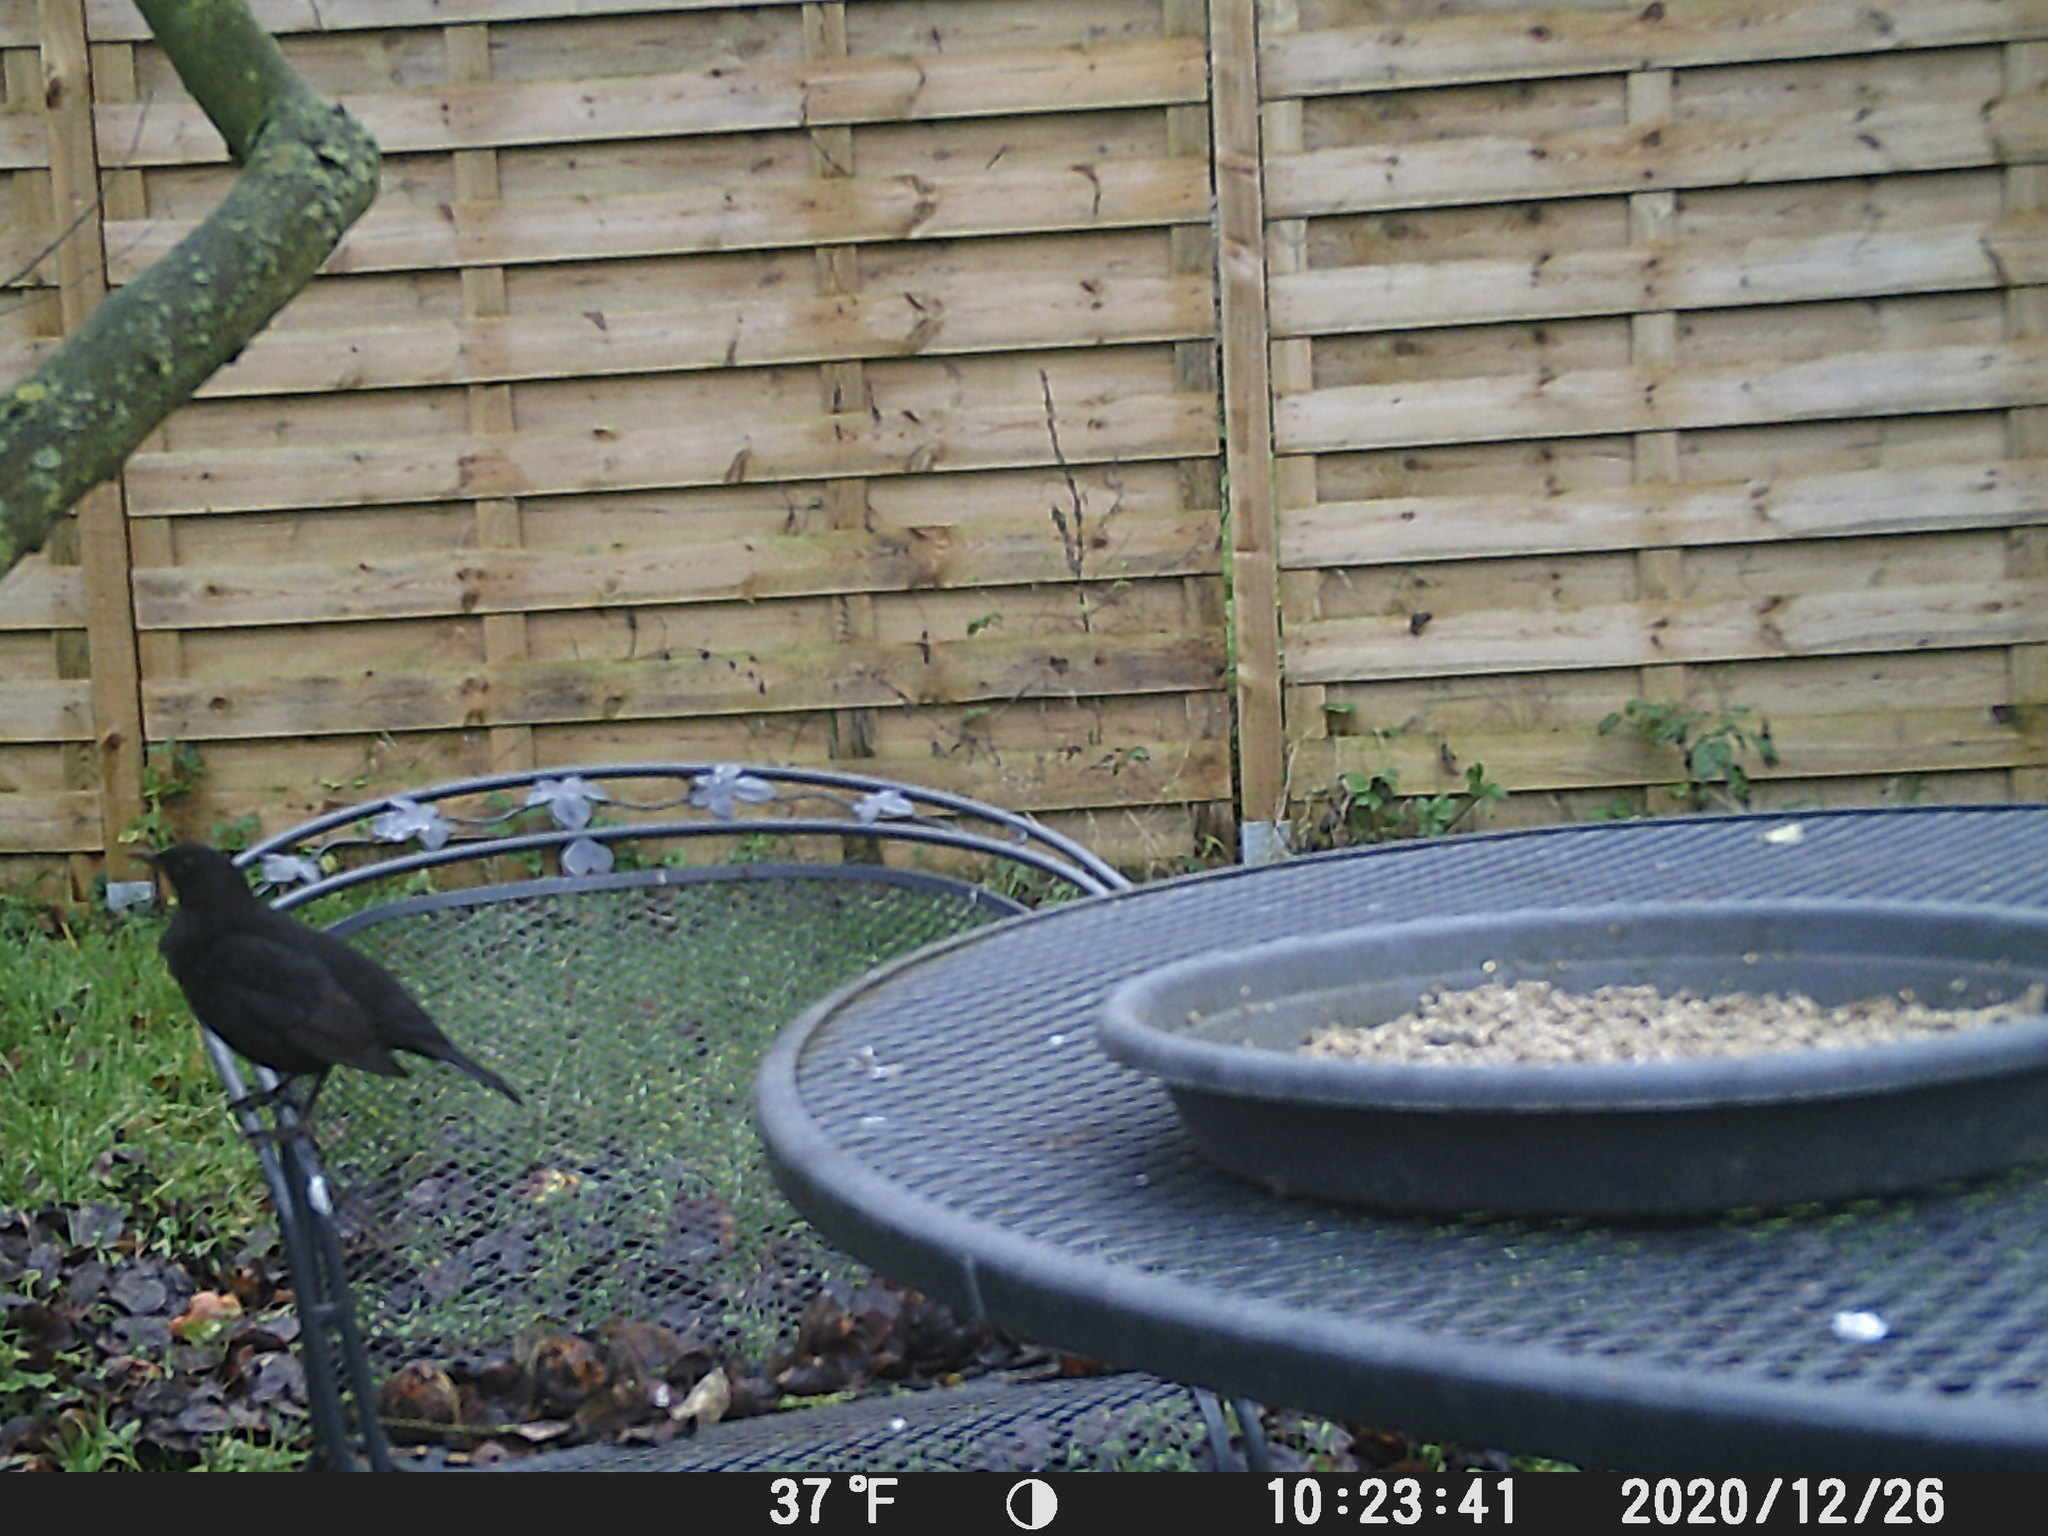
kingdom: Animalia
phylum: Chordata
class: Aves
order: Passeriformes
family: Turdidae
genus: Turdus
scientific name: Turdus merula
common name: Common blackbird
